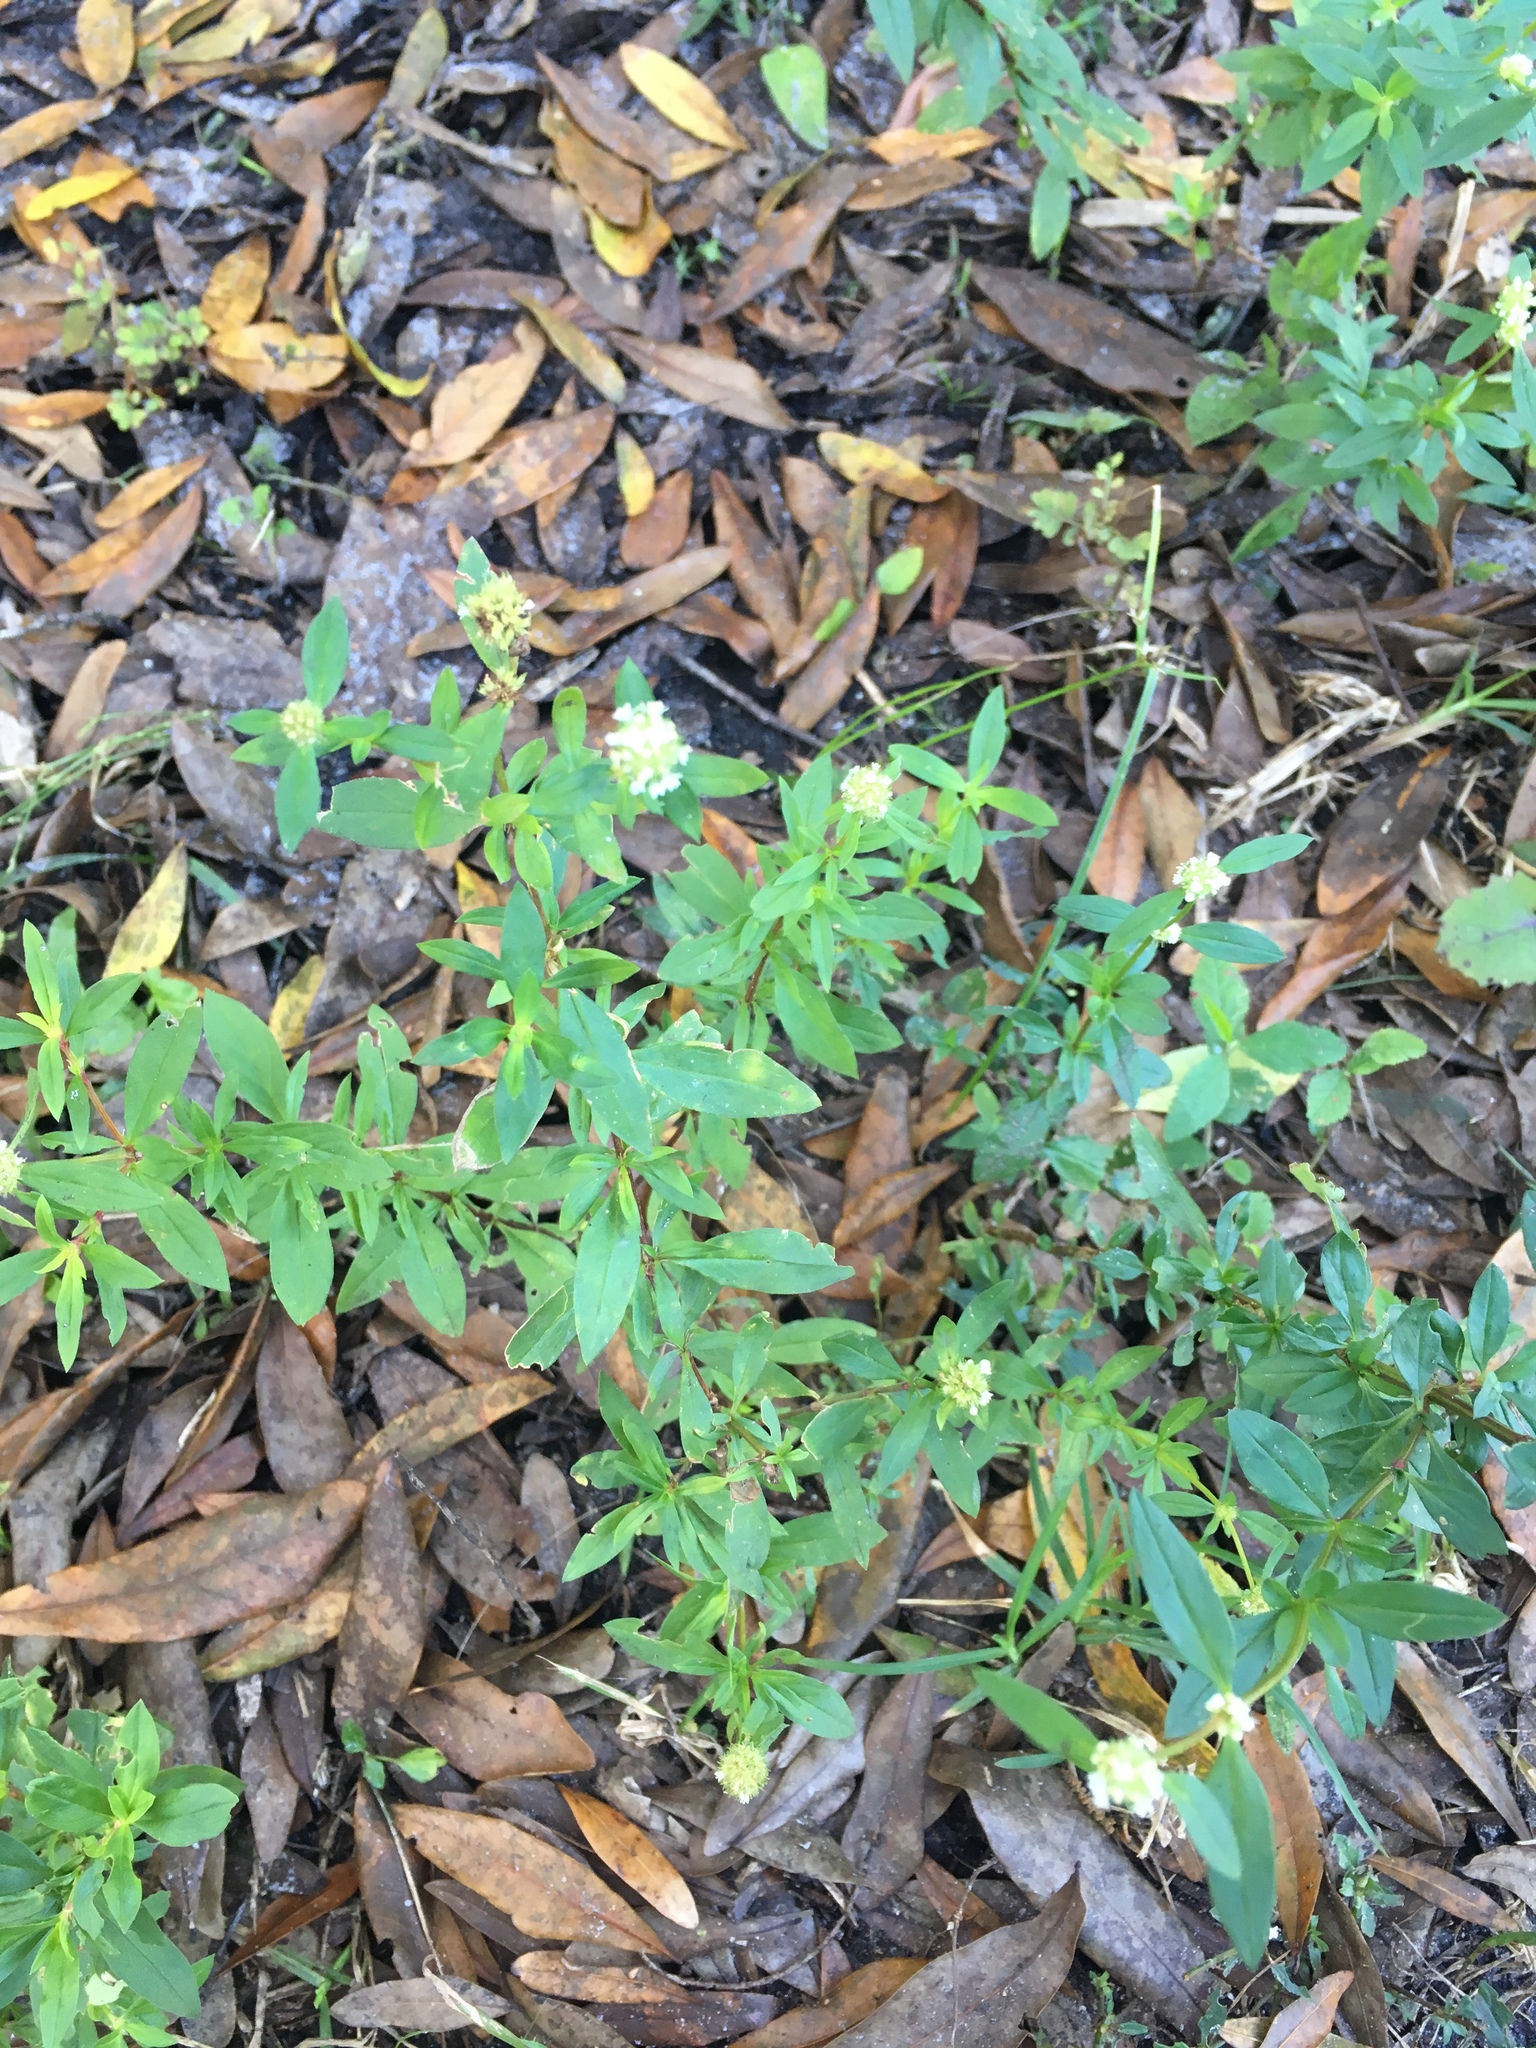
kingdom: Plantae
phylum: Tracheophyta
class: Magnoliopsida
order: Gentianales
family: Rubiaceae
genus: Spermacoce
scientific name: Spermacoce verticillata
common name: Shrubby false buttonweed
